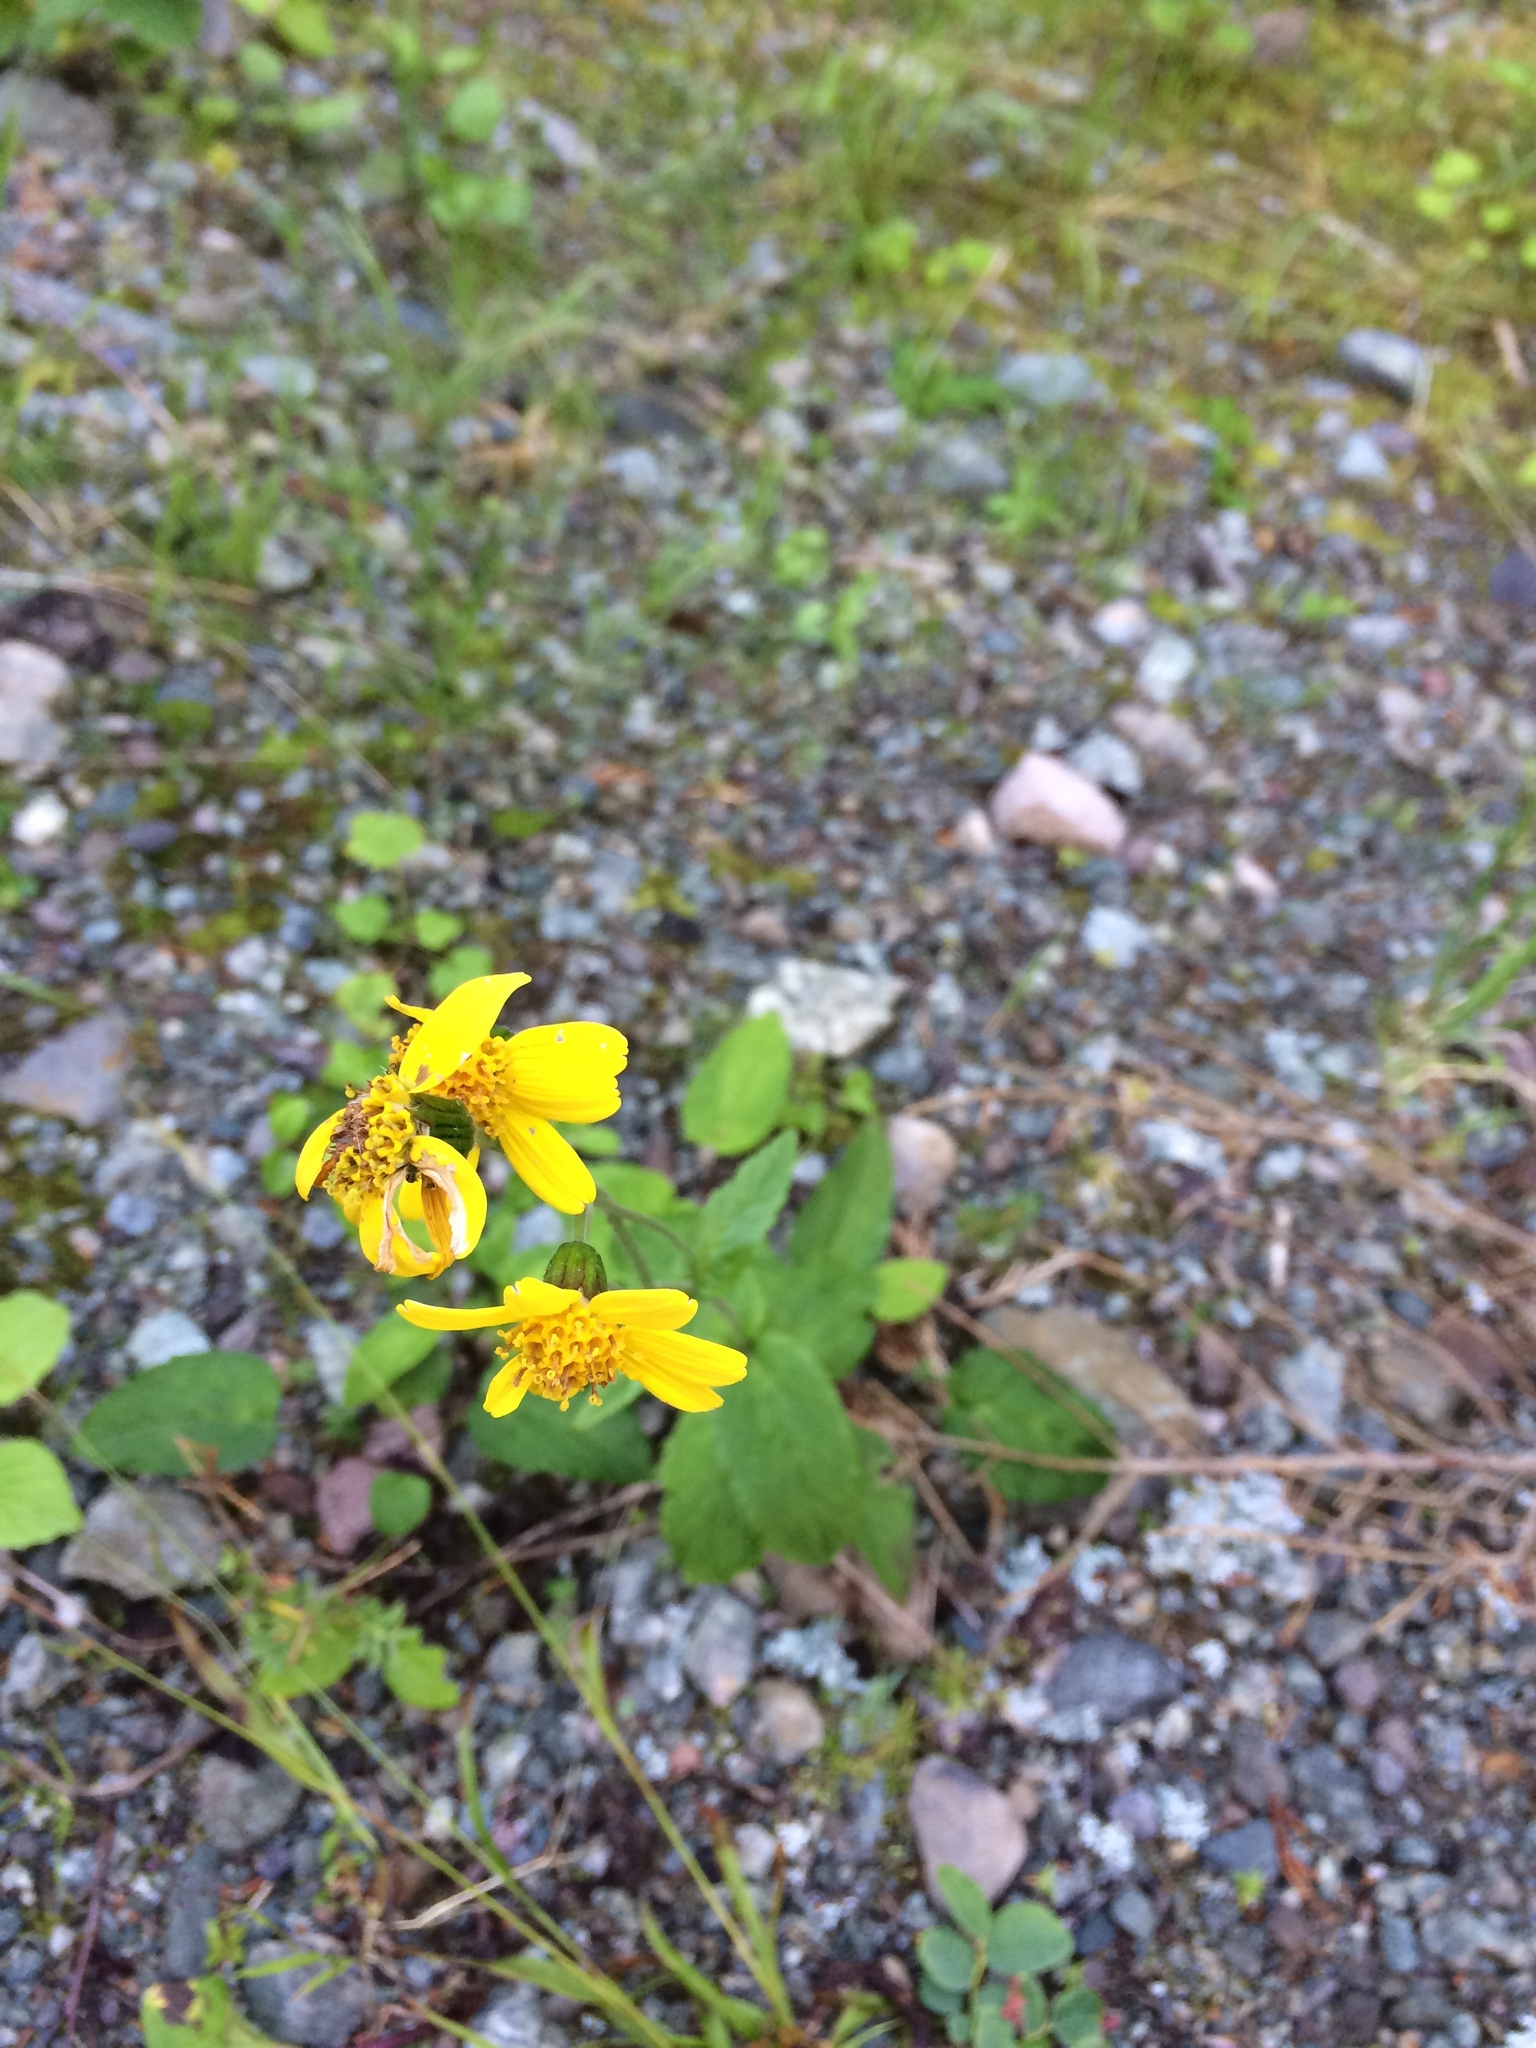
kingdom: Plantae
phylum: Tracheophyta
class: Magnoliopsida
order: Asterales
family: Asteraceae
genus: Arnica
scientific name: Arnica latifolia
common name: Arnica
